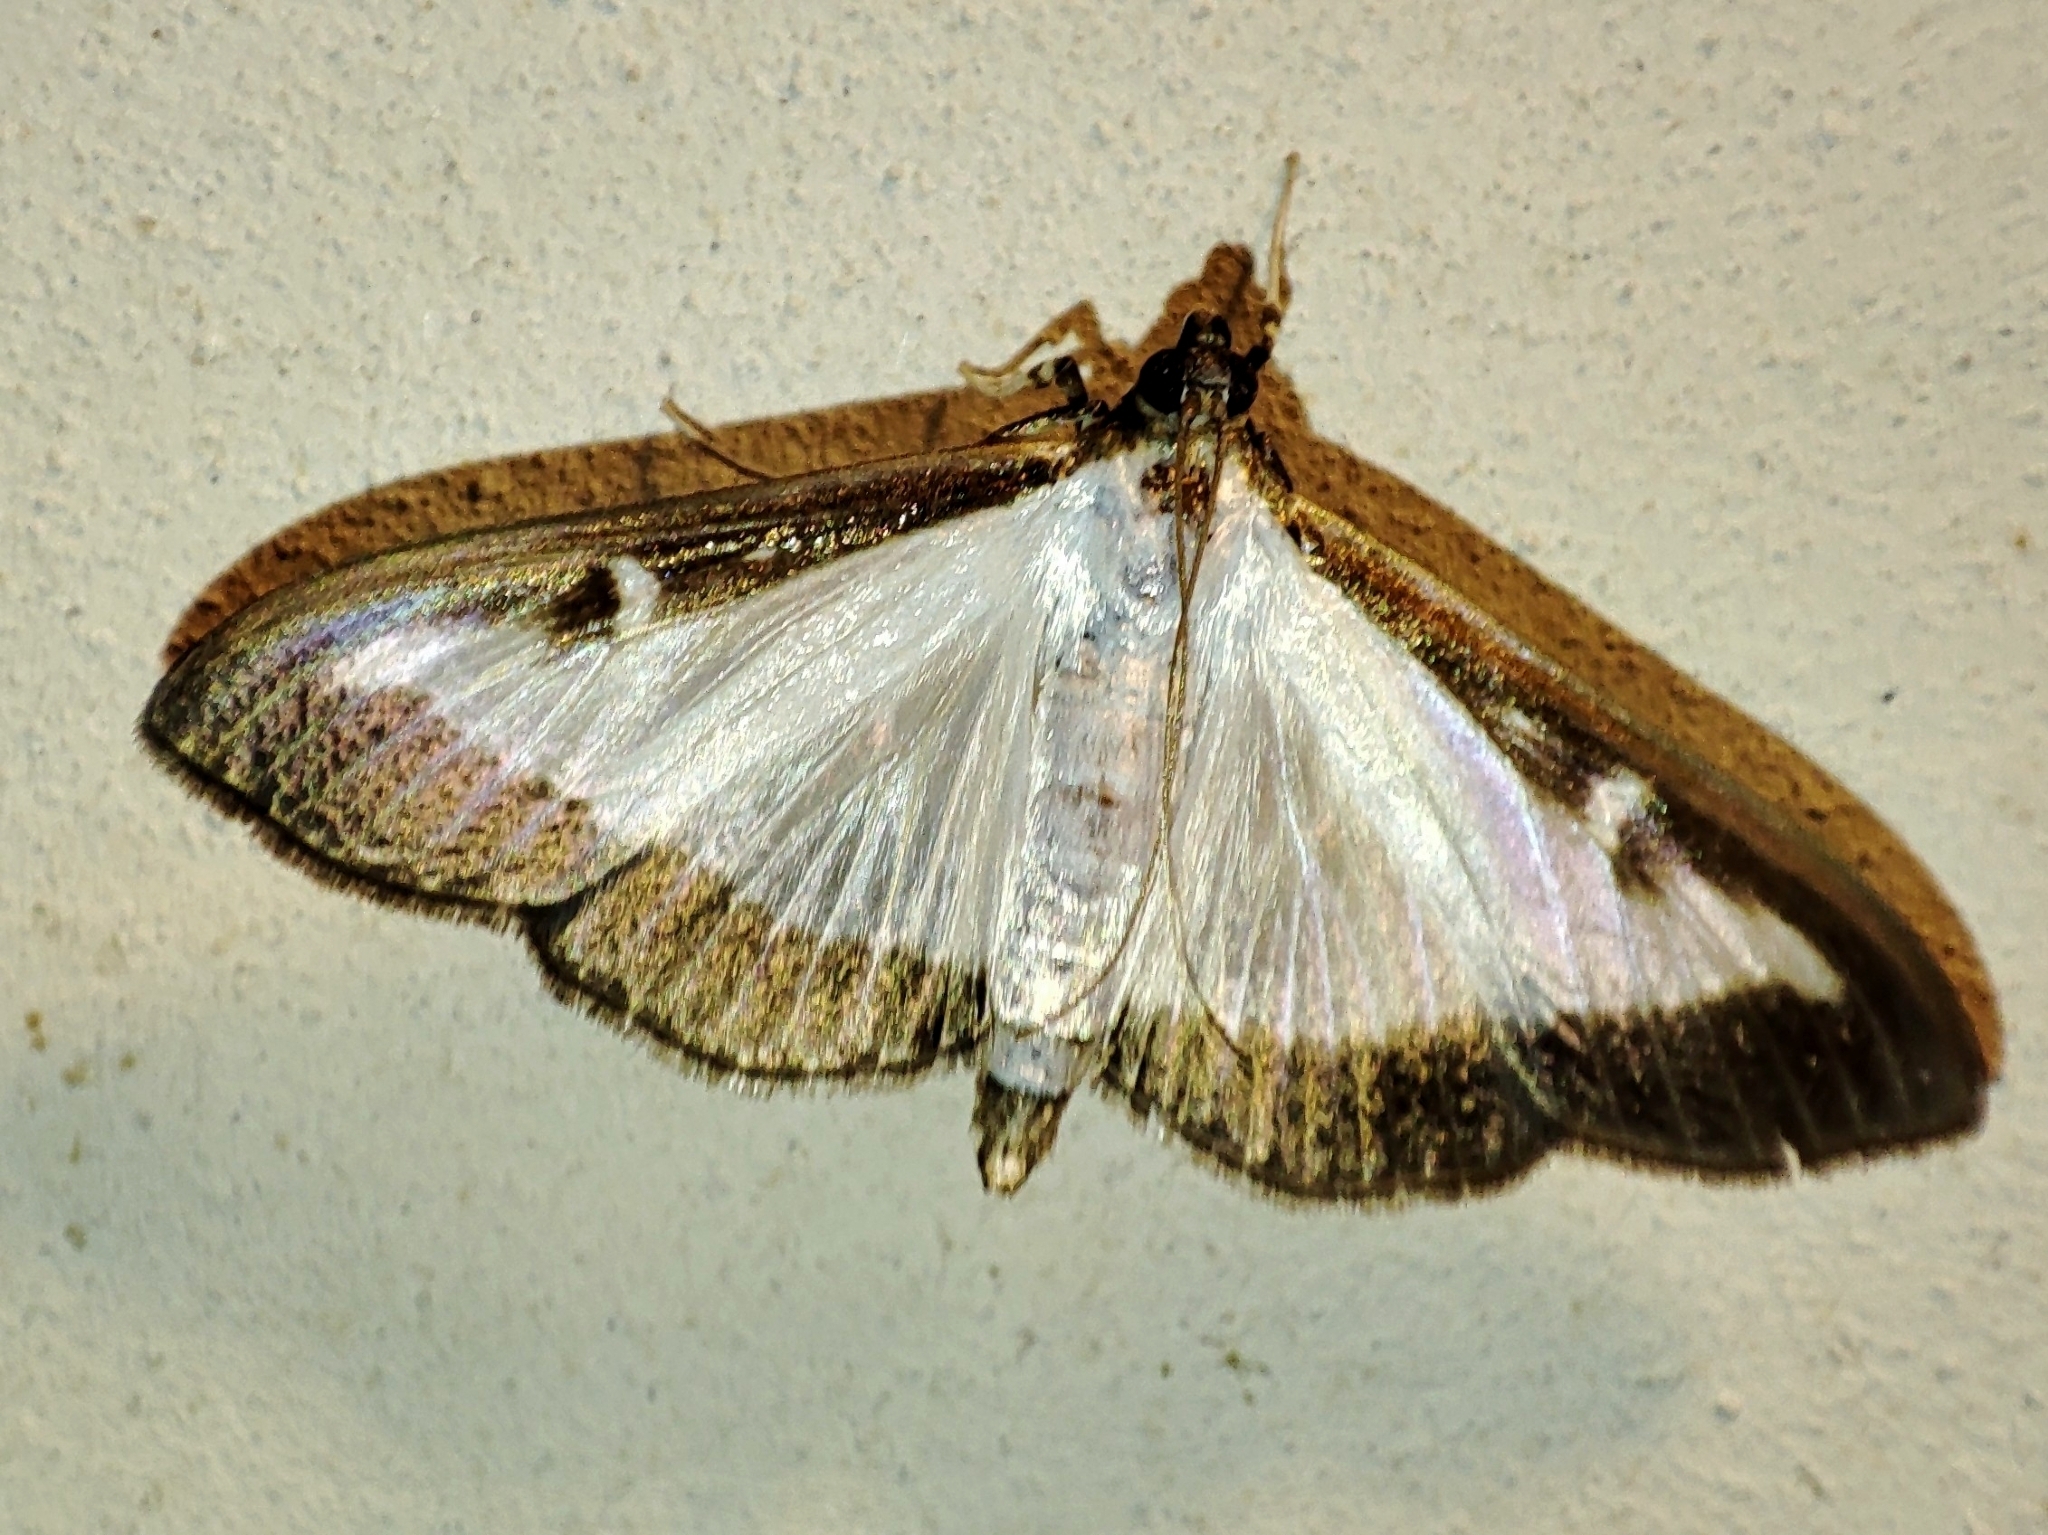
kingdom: Animalia
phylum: Arthropoda
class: Insecta
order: Lepidoptera
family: Crambidae
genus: Cydalima
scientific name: Cydalima perspectalis
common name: Box tree moth
